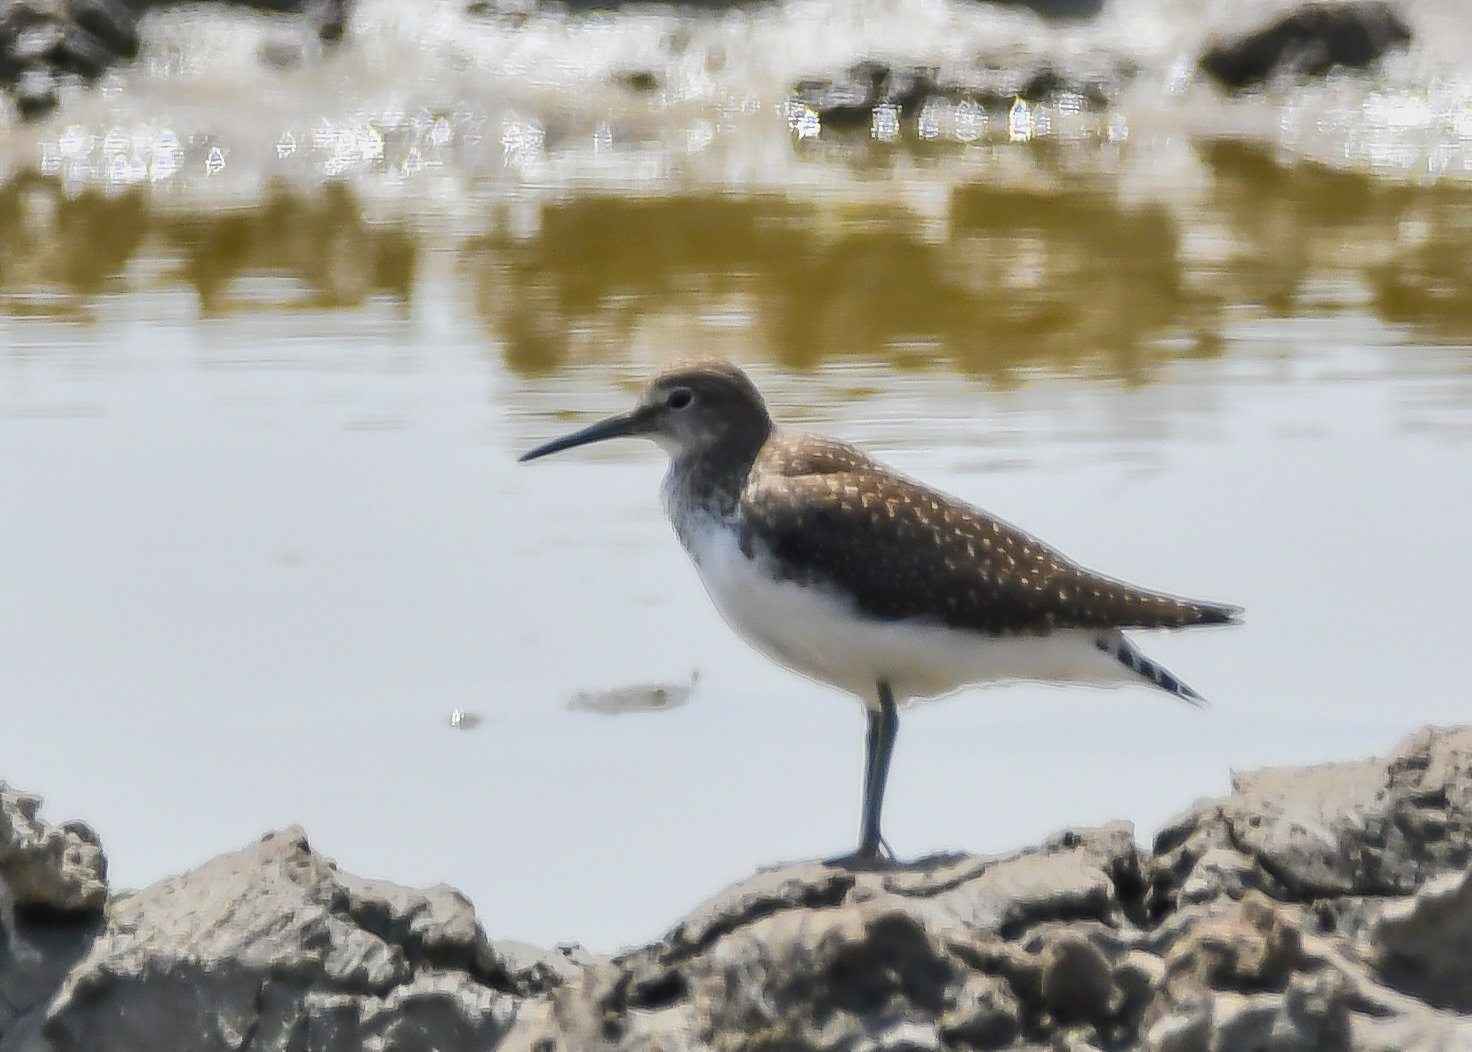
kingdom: Animalia
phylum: Chordata
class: Aves
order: Charadriiformes
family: Scolopacidae
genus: Tringa
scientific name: Tringa ochropus
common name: Green sandpiper
